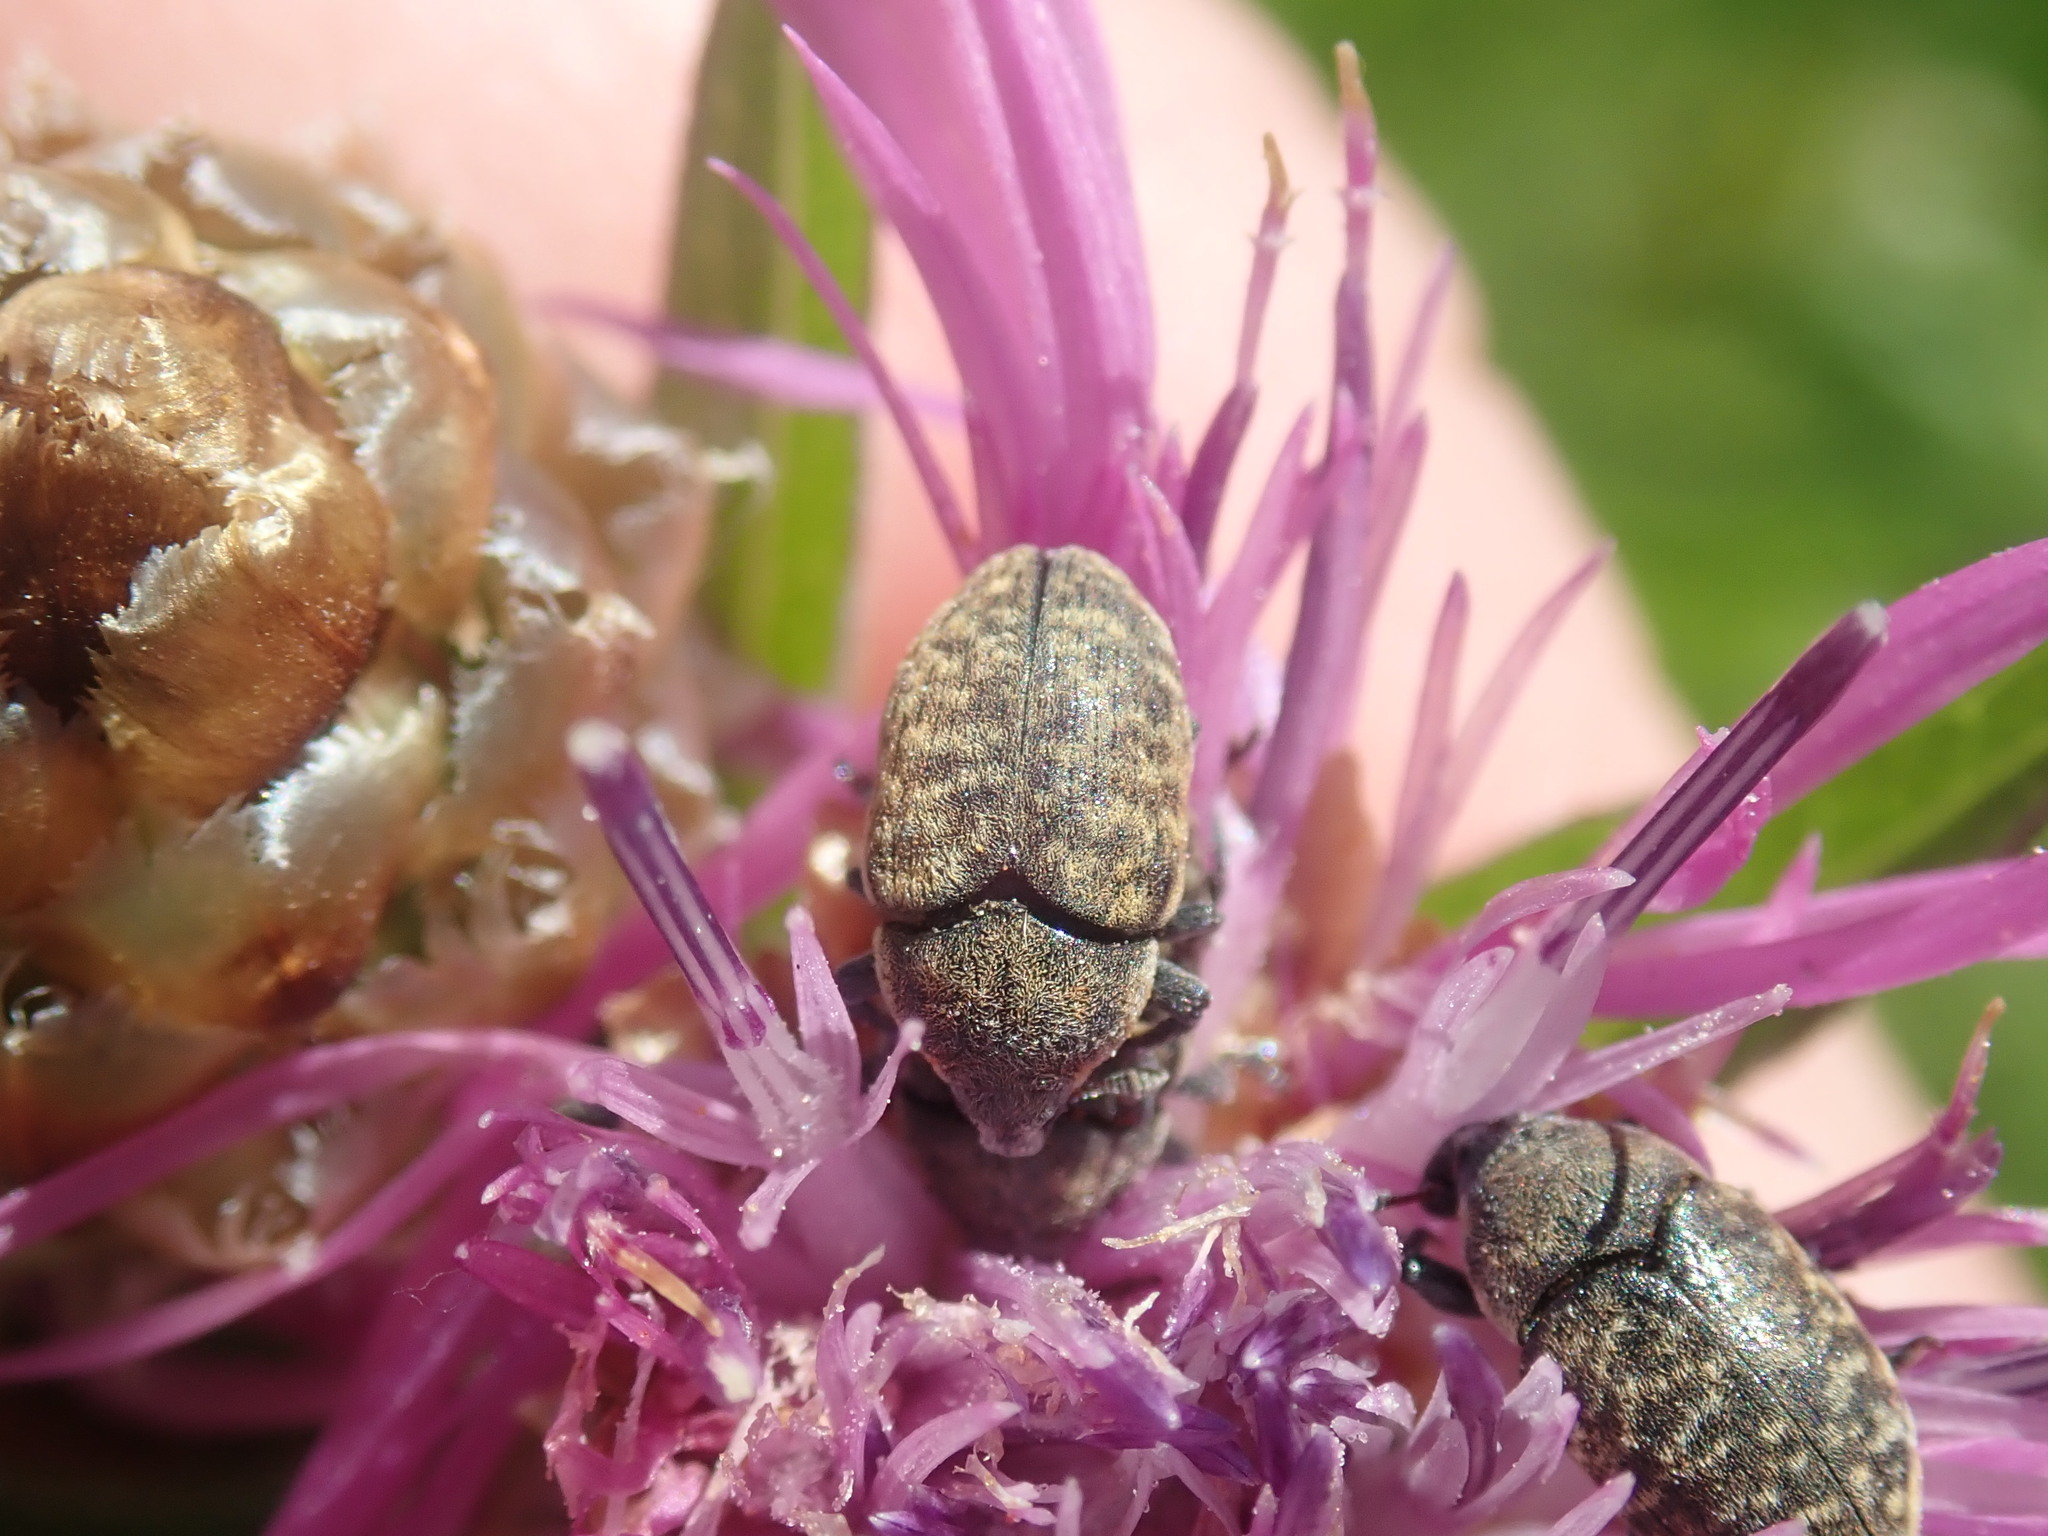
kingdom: Animalia
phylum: Arthropoda
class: Insecta
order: Coleoptera
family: Curculionidae
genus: Larinus
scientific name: Larinus obtusus
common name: Weevil
